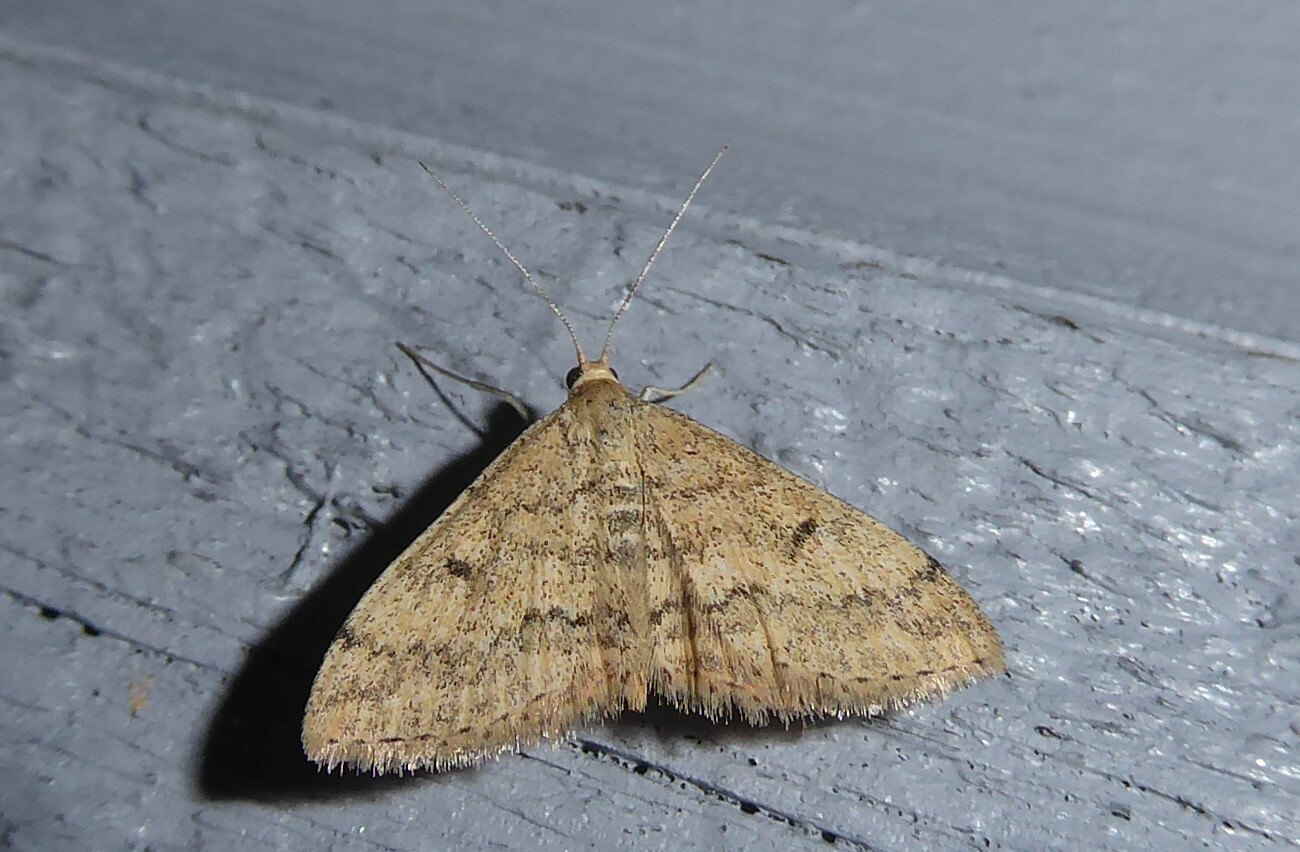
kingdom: Animalia
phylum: Arthropoda
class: Insecta
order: Lepidoptera
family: Geometridae
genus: Scopula
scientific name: Scopula rubraria
